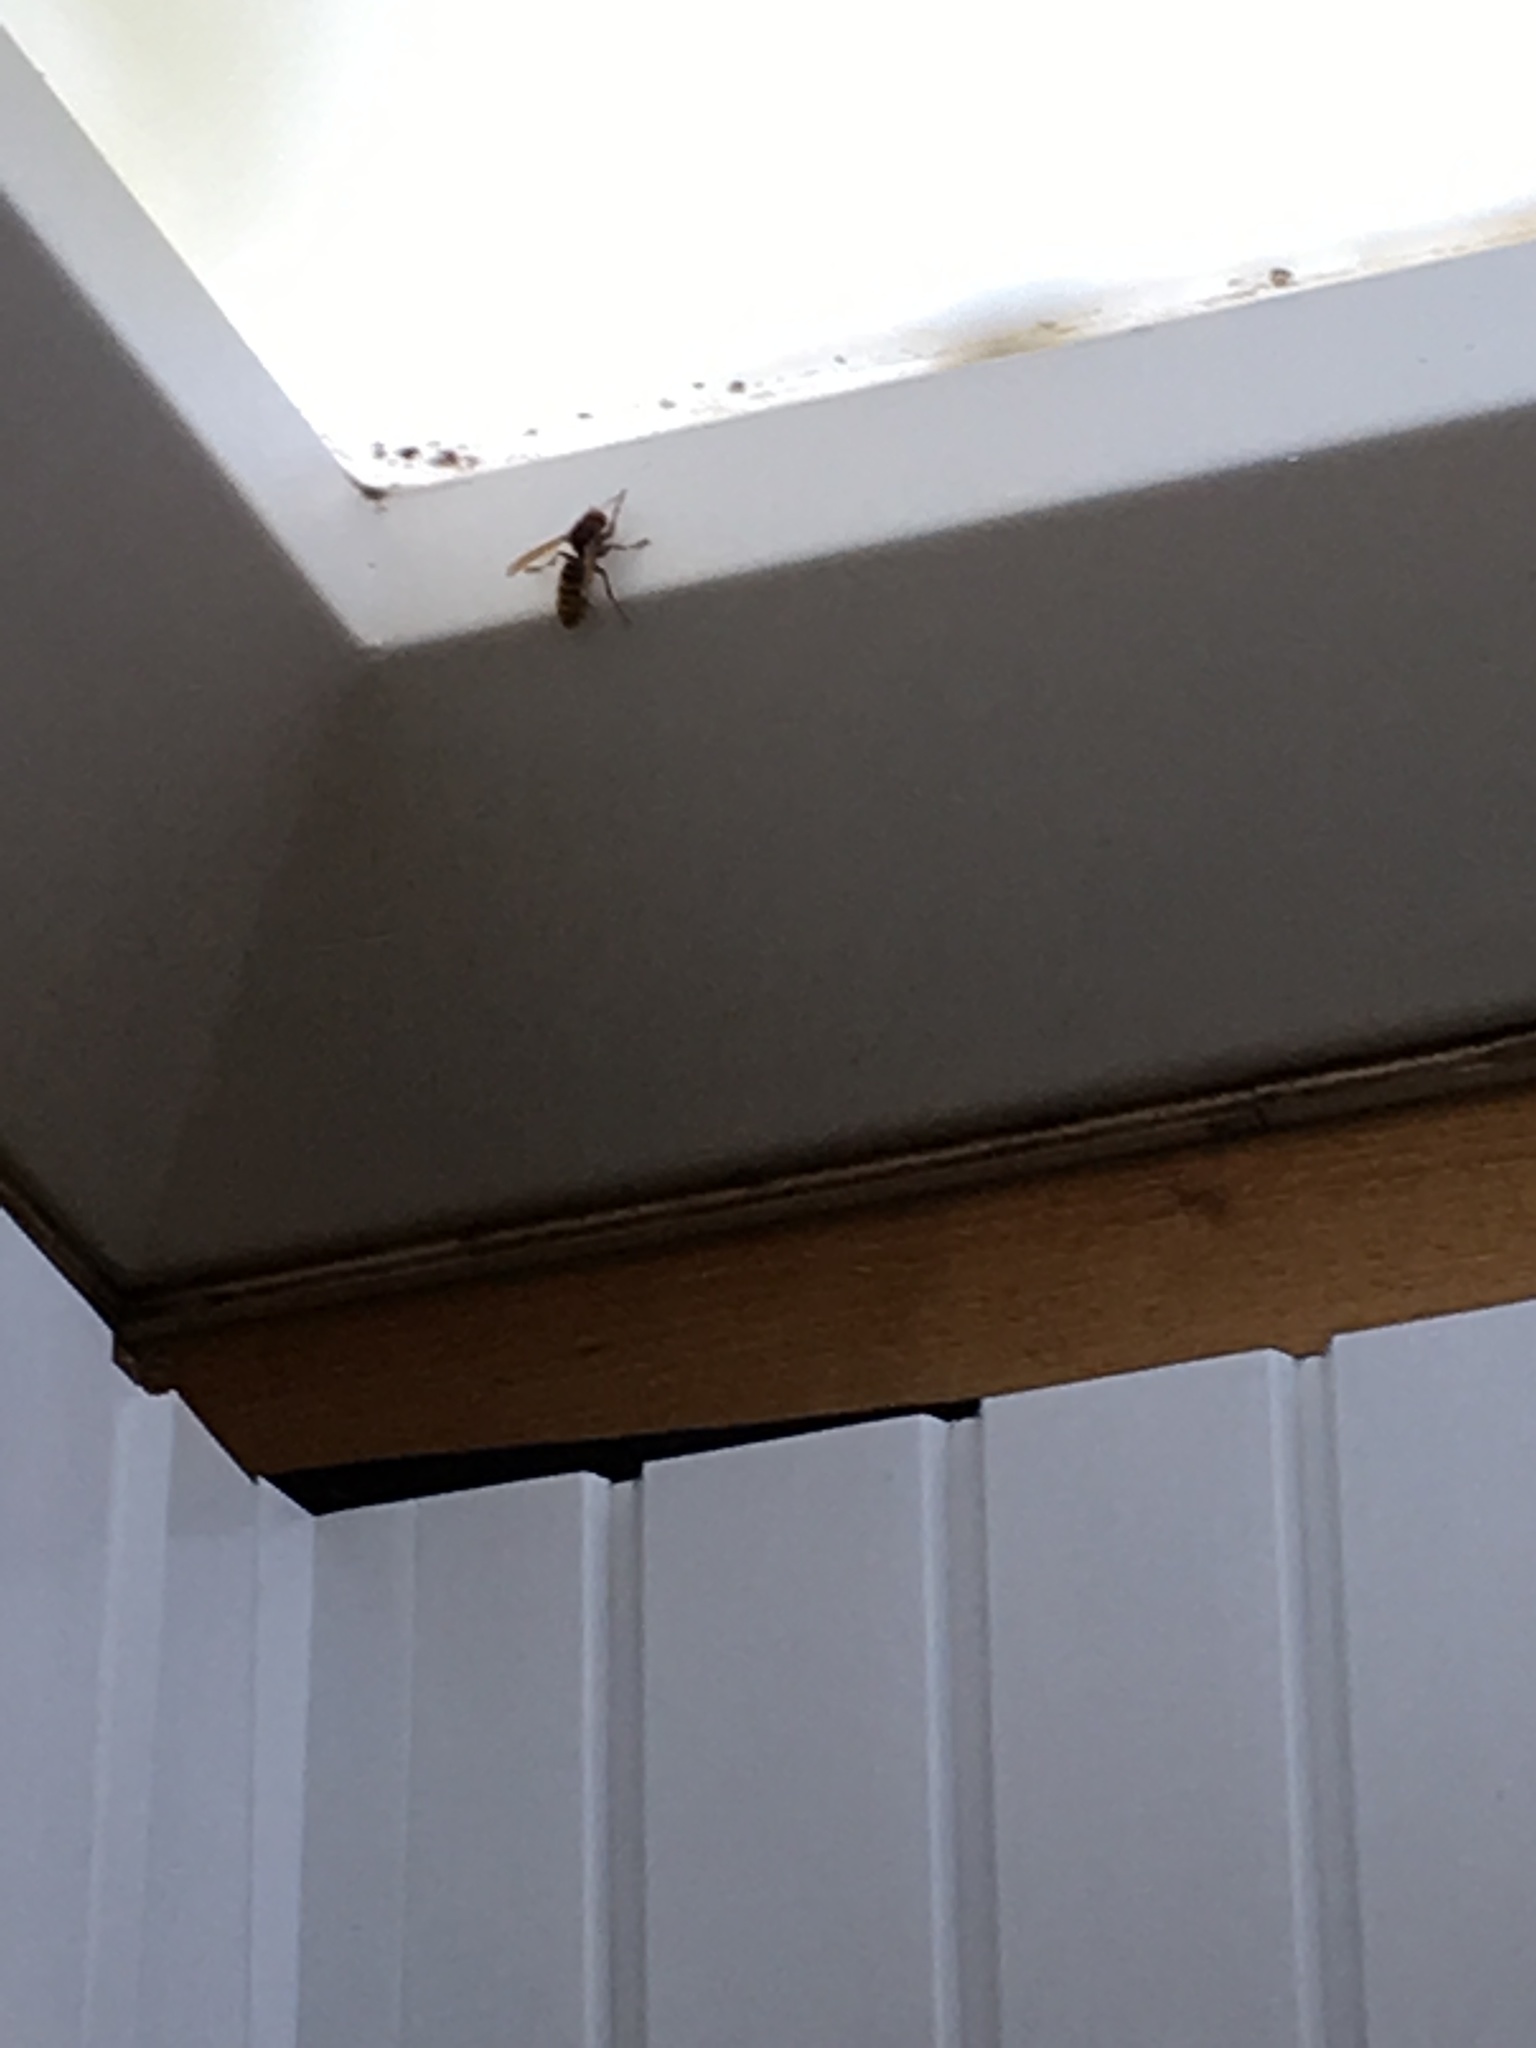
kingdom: Animalia
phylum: Arthropoda
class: Insecta
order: Hymenoptera
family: Vespidae
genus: Vespa
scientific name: Vespa crabro
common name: Hornet
